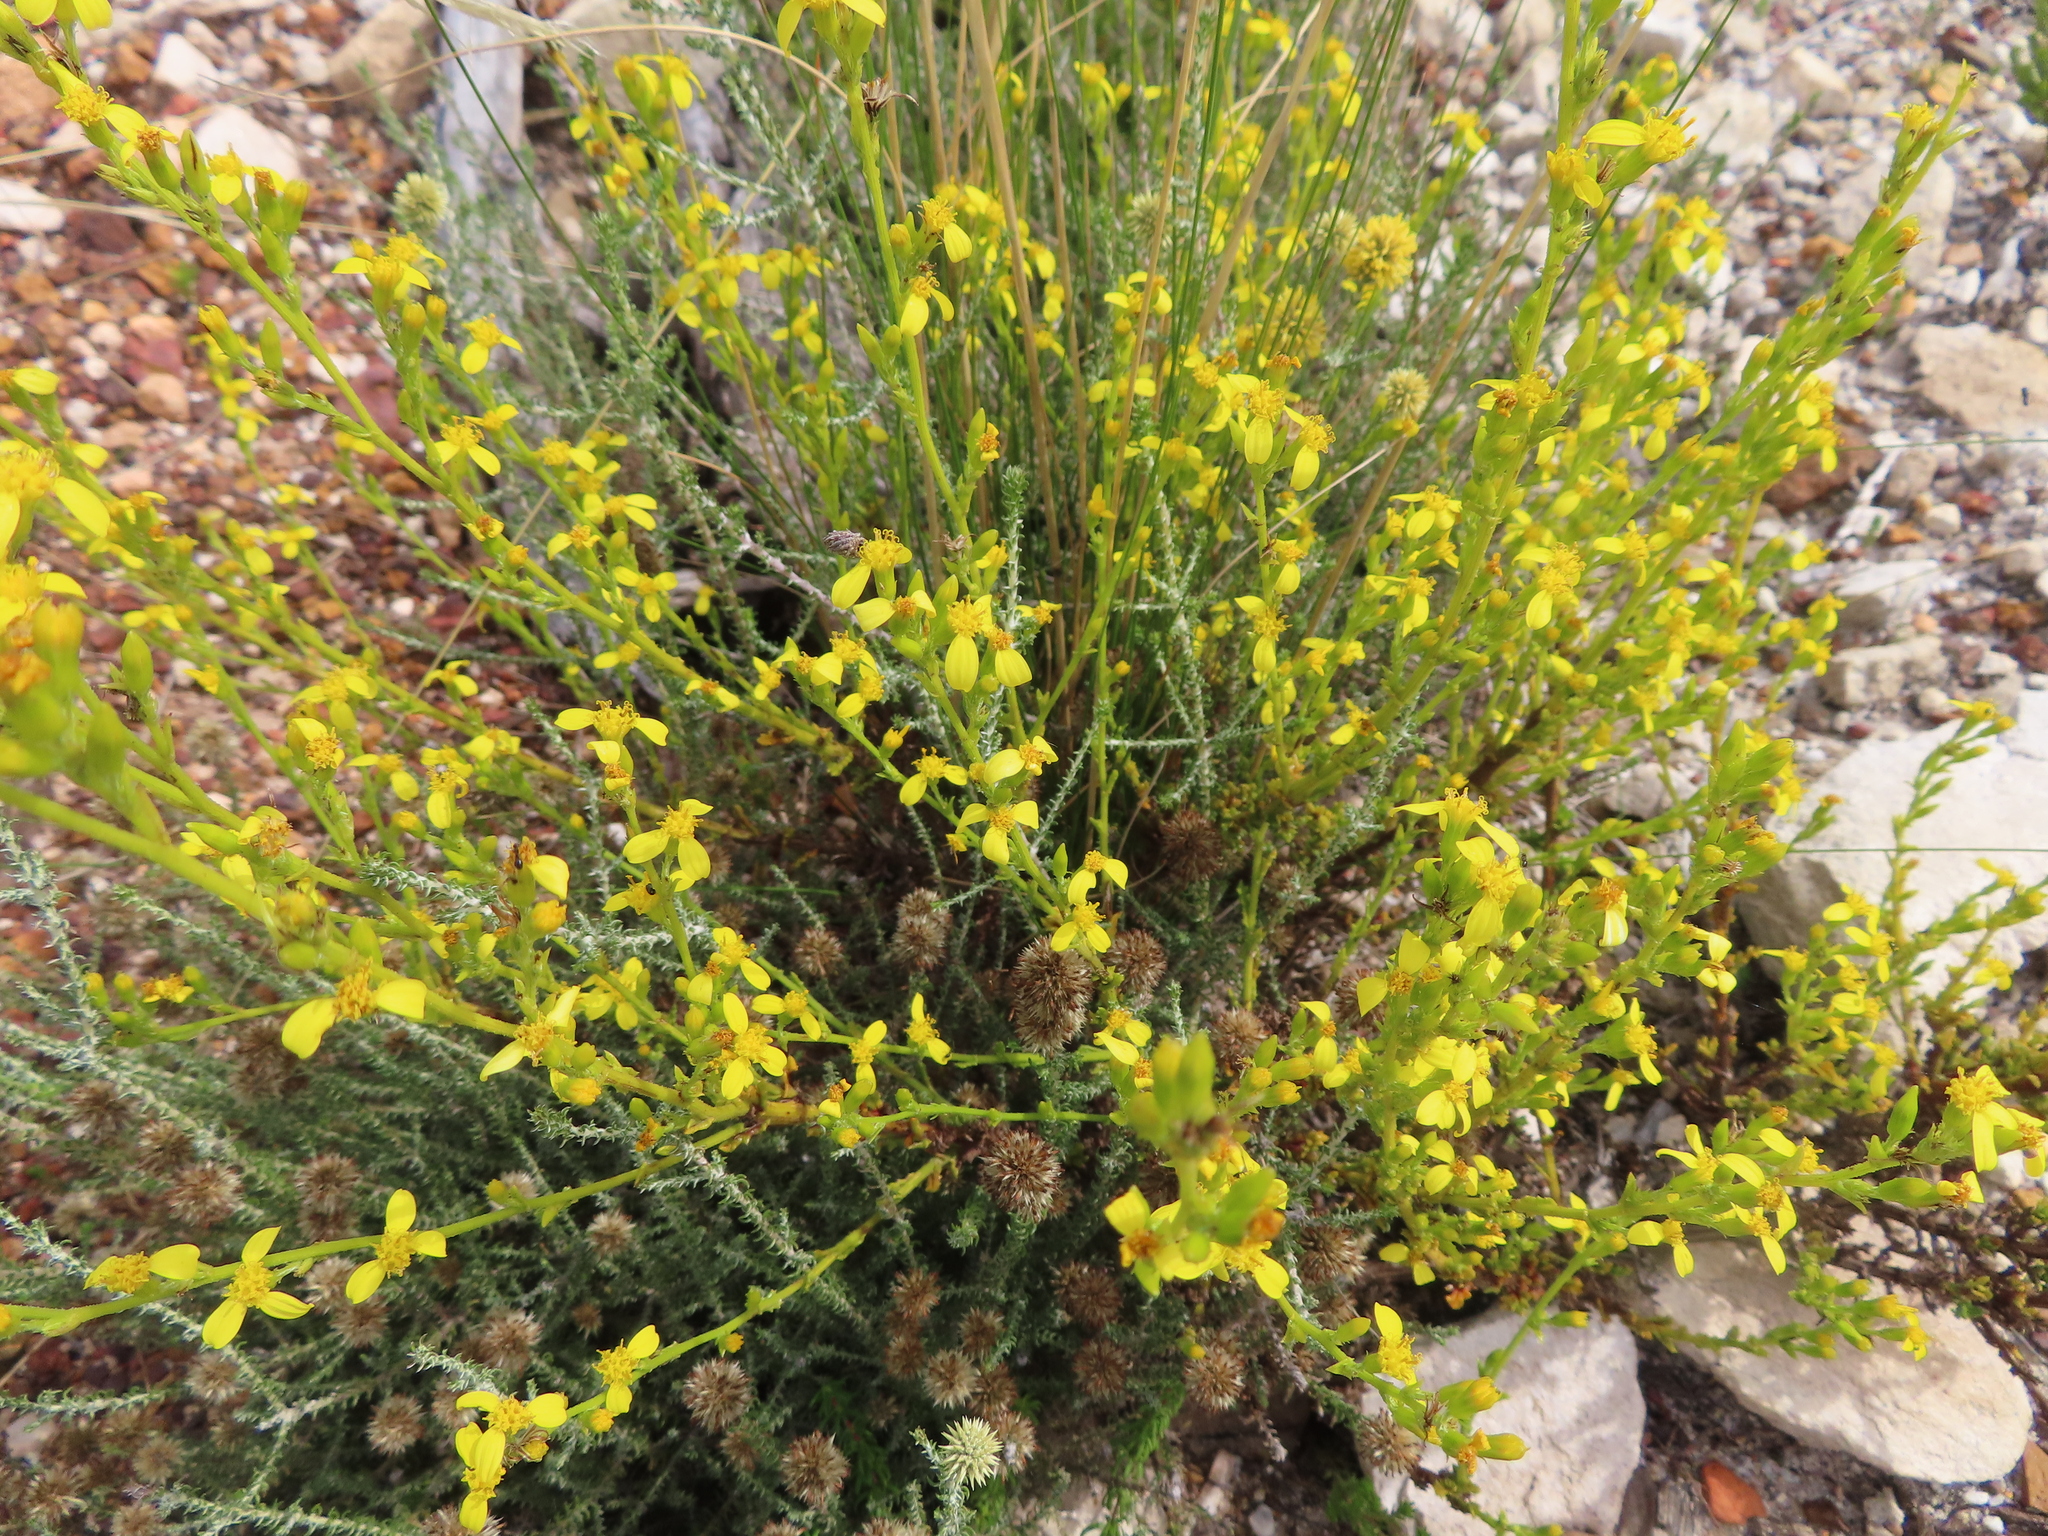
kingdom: Plantae
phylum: Tracheophyta
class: Magnoliopsida
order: Asterales
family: Asteraceae
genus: Senecio
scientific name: Senecio pubigerus
